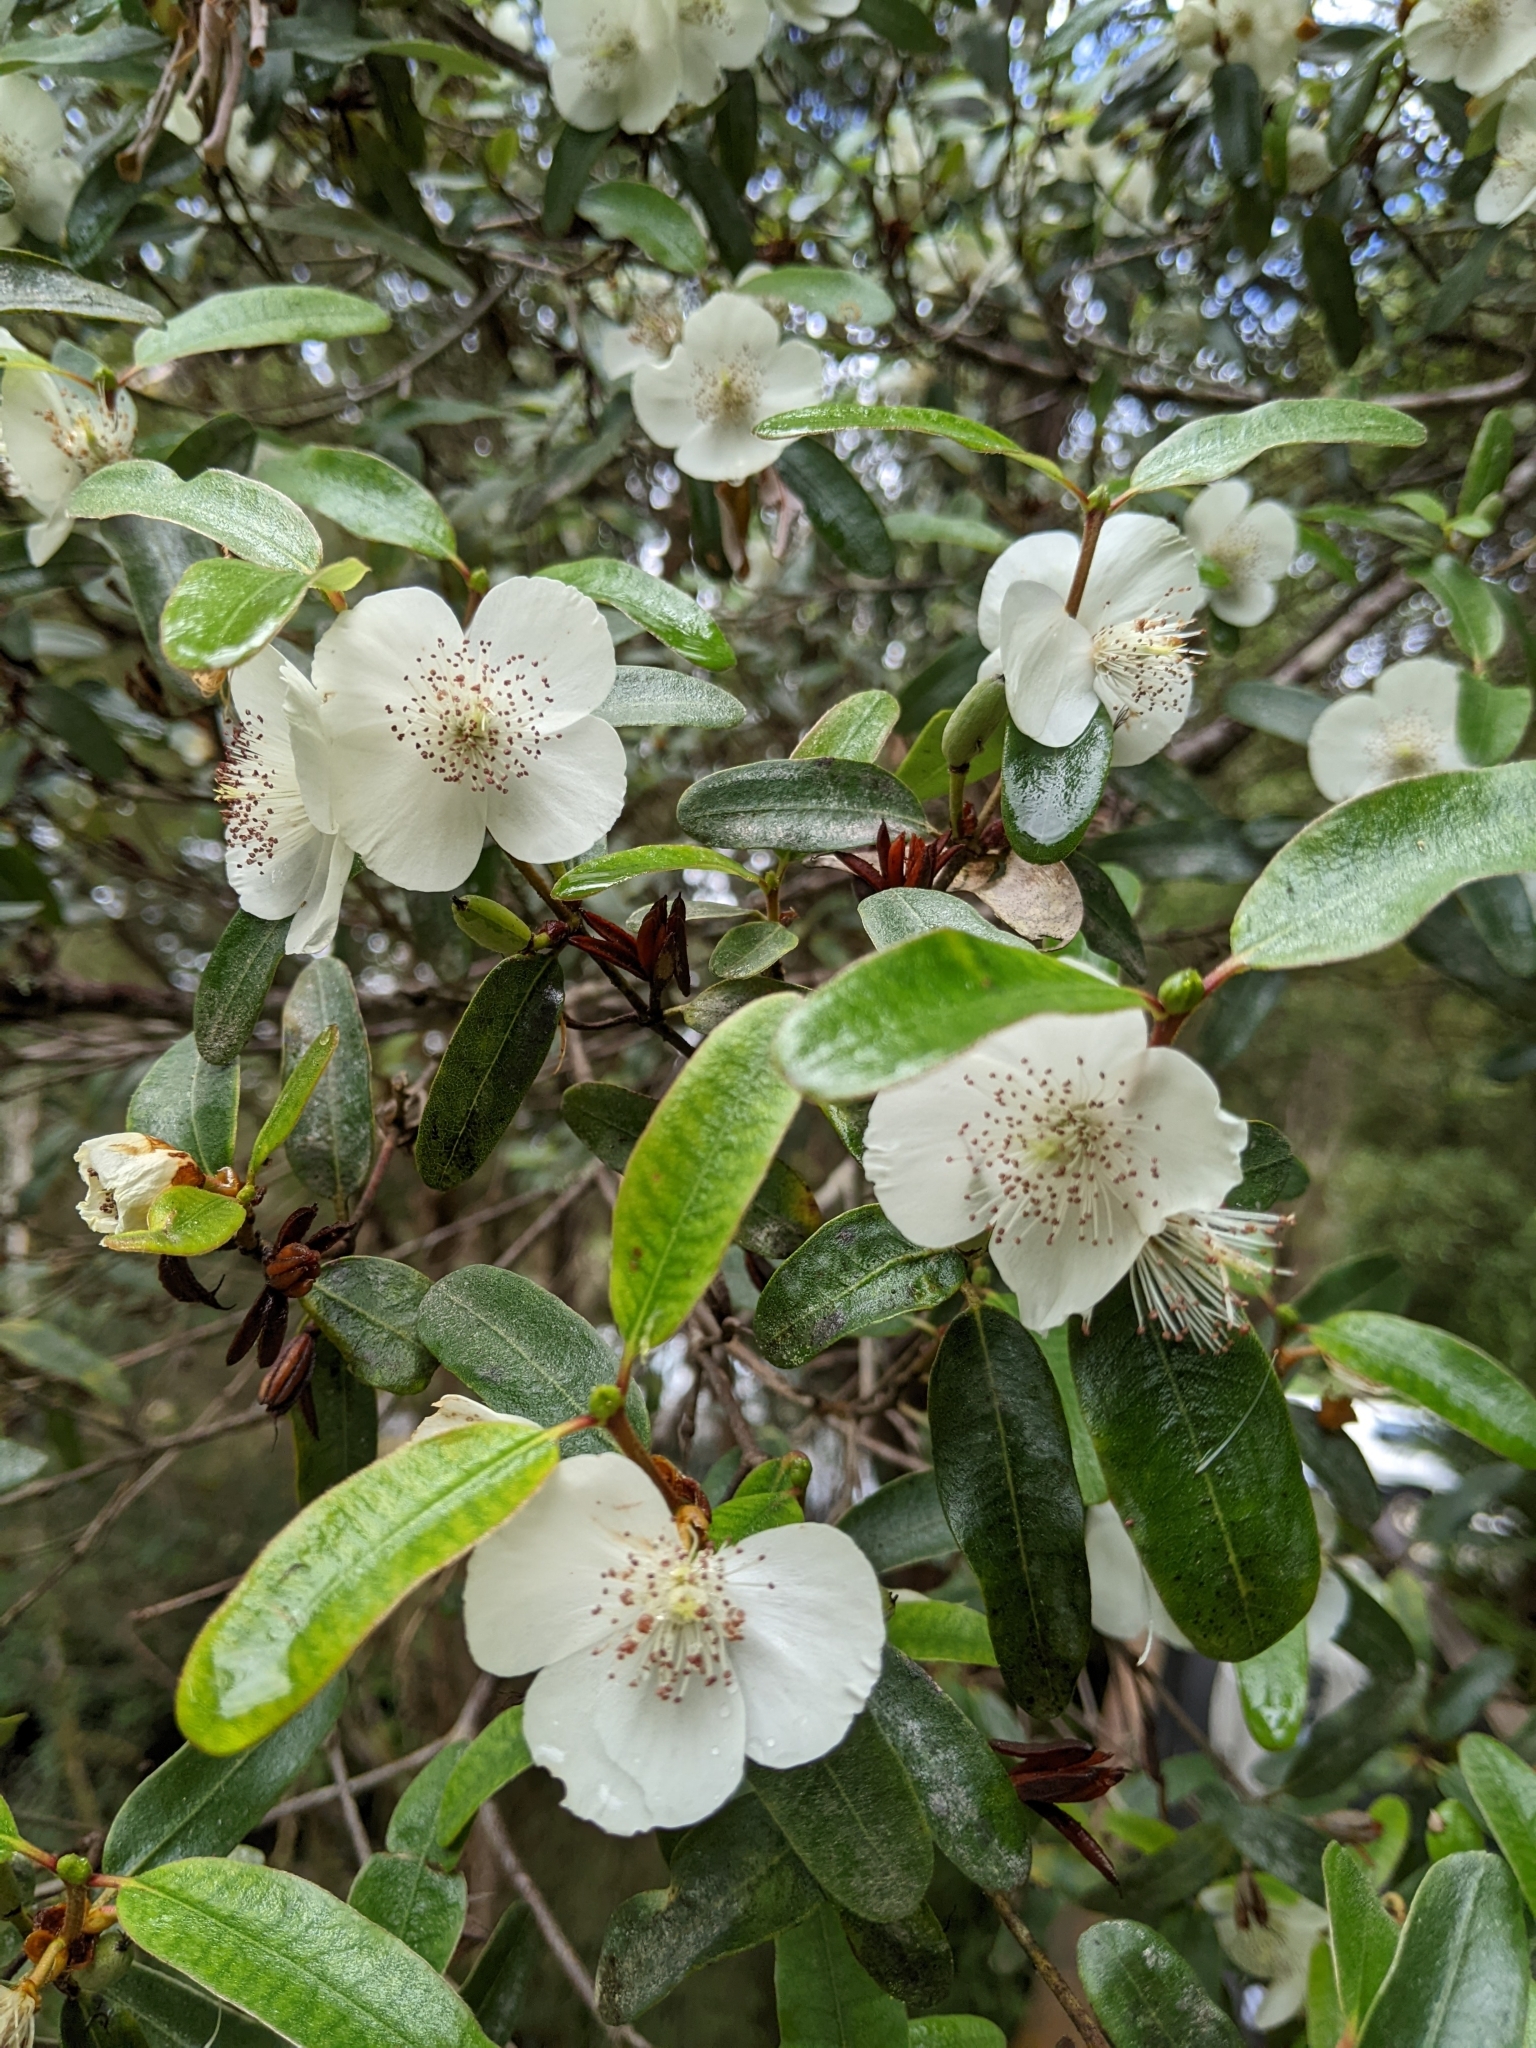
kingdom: Plantae
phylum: Tracheophyta
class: Magnoliopsida
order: Oxalidales
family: Cunoniaceae
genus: Eucryphia
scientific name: Eucryphia lucida
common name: Leatherwood
